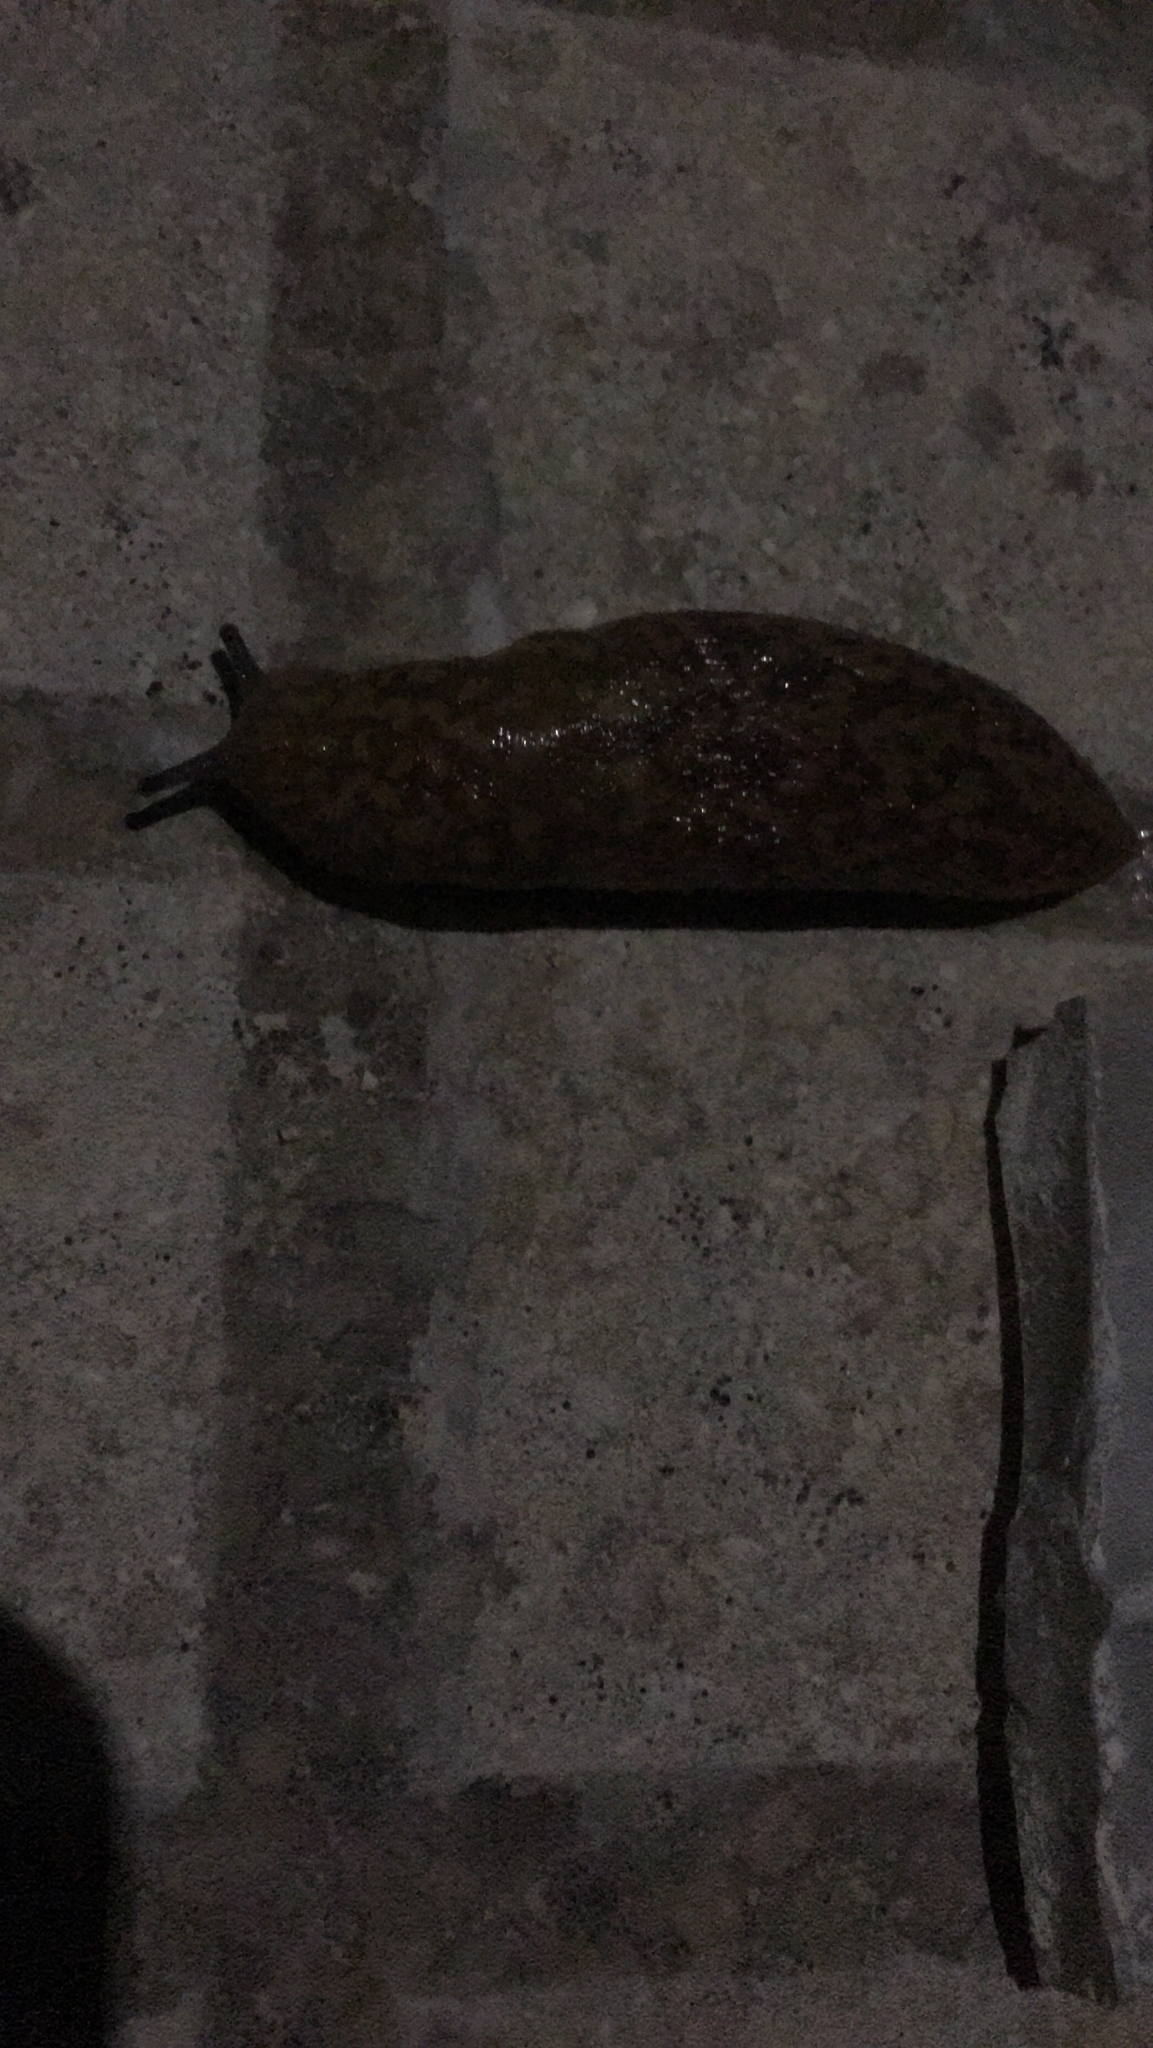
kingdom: Animalia
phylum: Mollusca
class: Gastropoda
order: Stylommatophora
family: Limacidae
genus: Limacus
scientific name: Limacus flavus
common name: Yellow gardenslug
